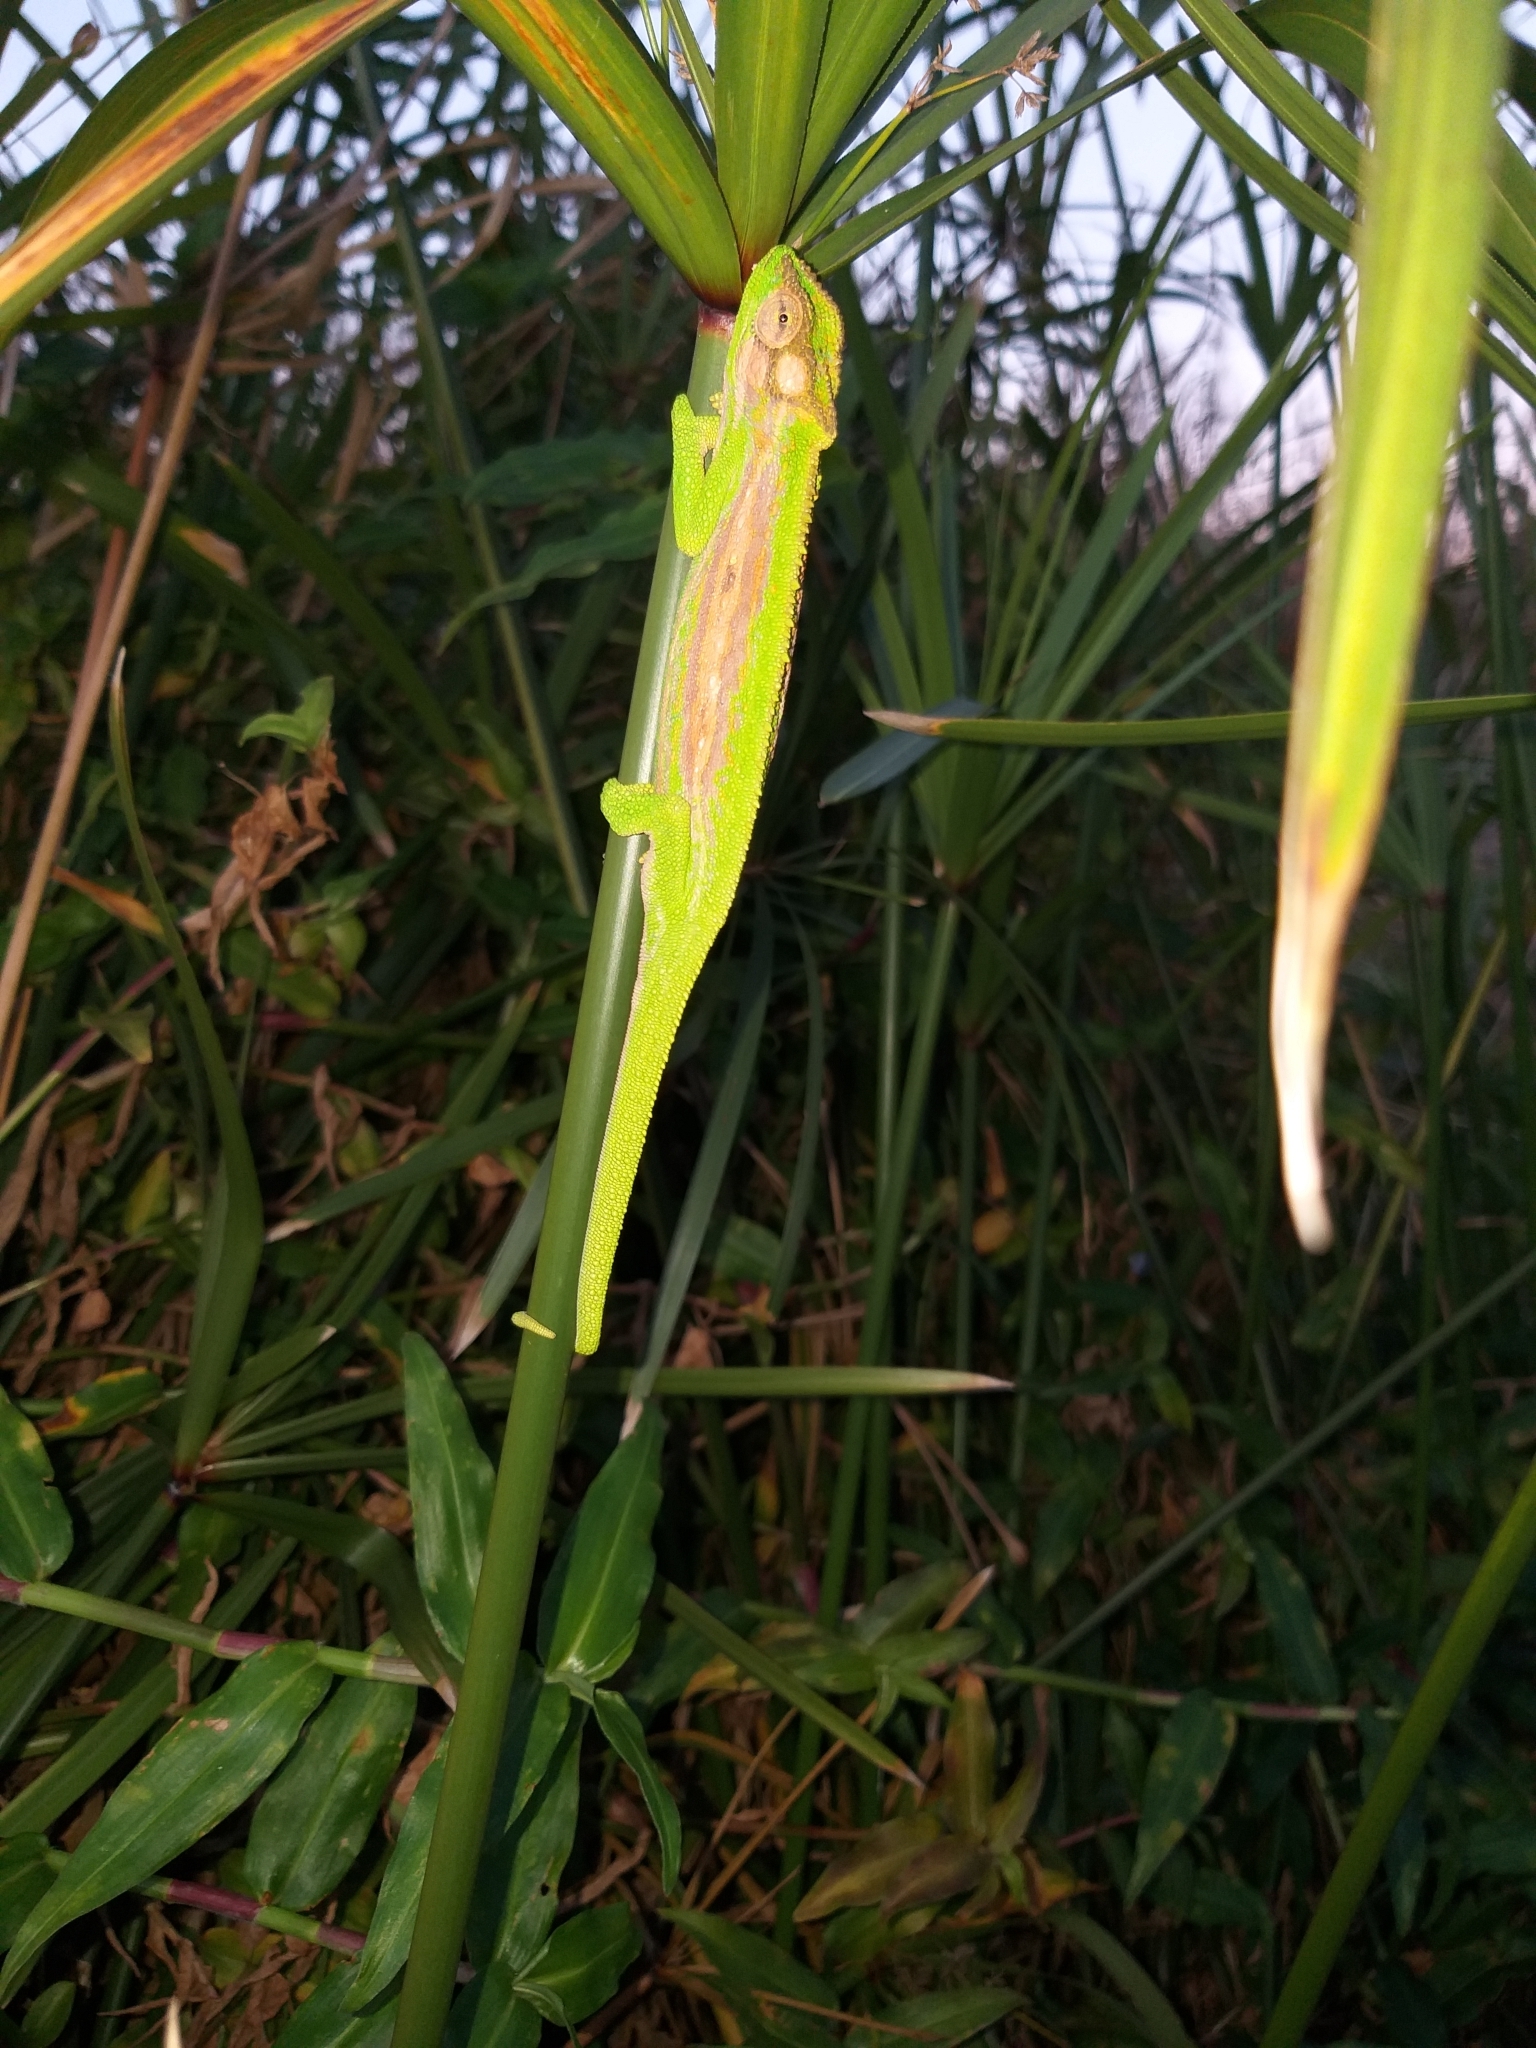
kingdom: Animalia
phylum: Chordata
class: Squamata
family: Chamaeleonidae
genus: Bradypodion
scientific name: Bradypodion pumilum
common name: Cape dwarf chameleon
